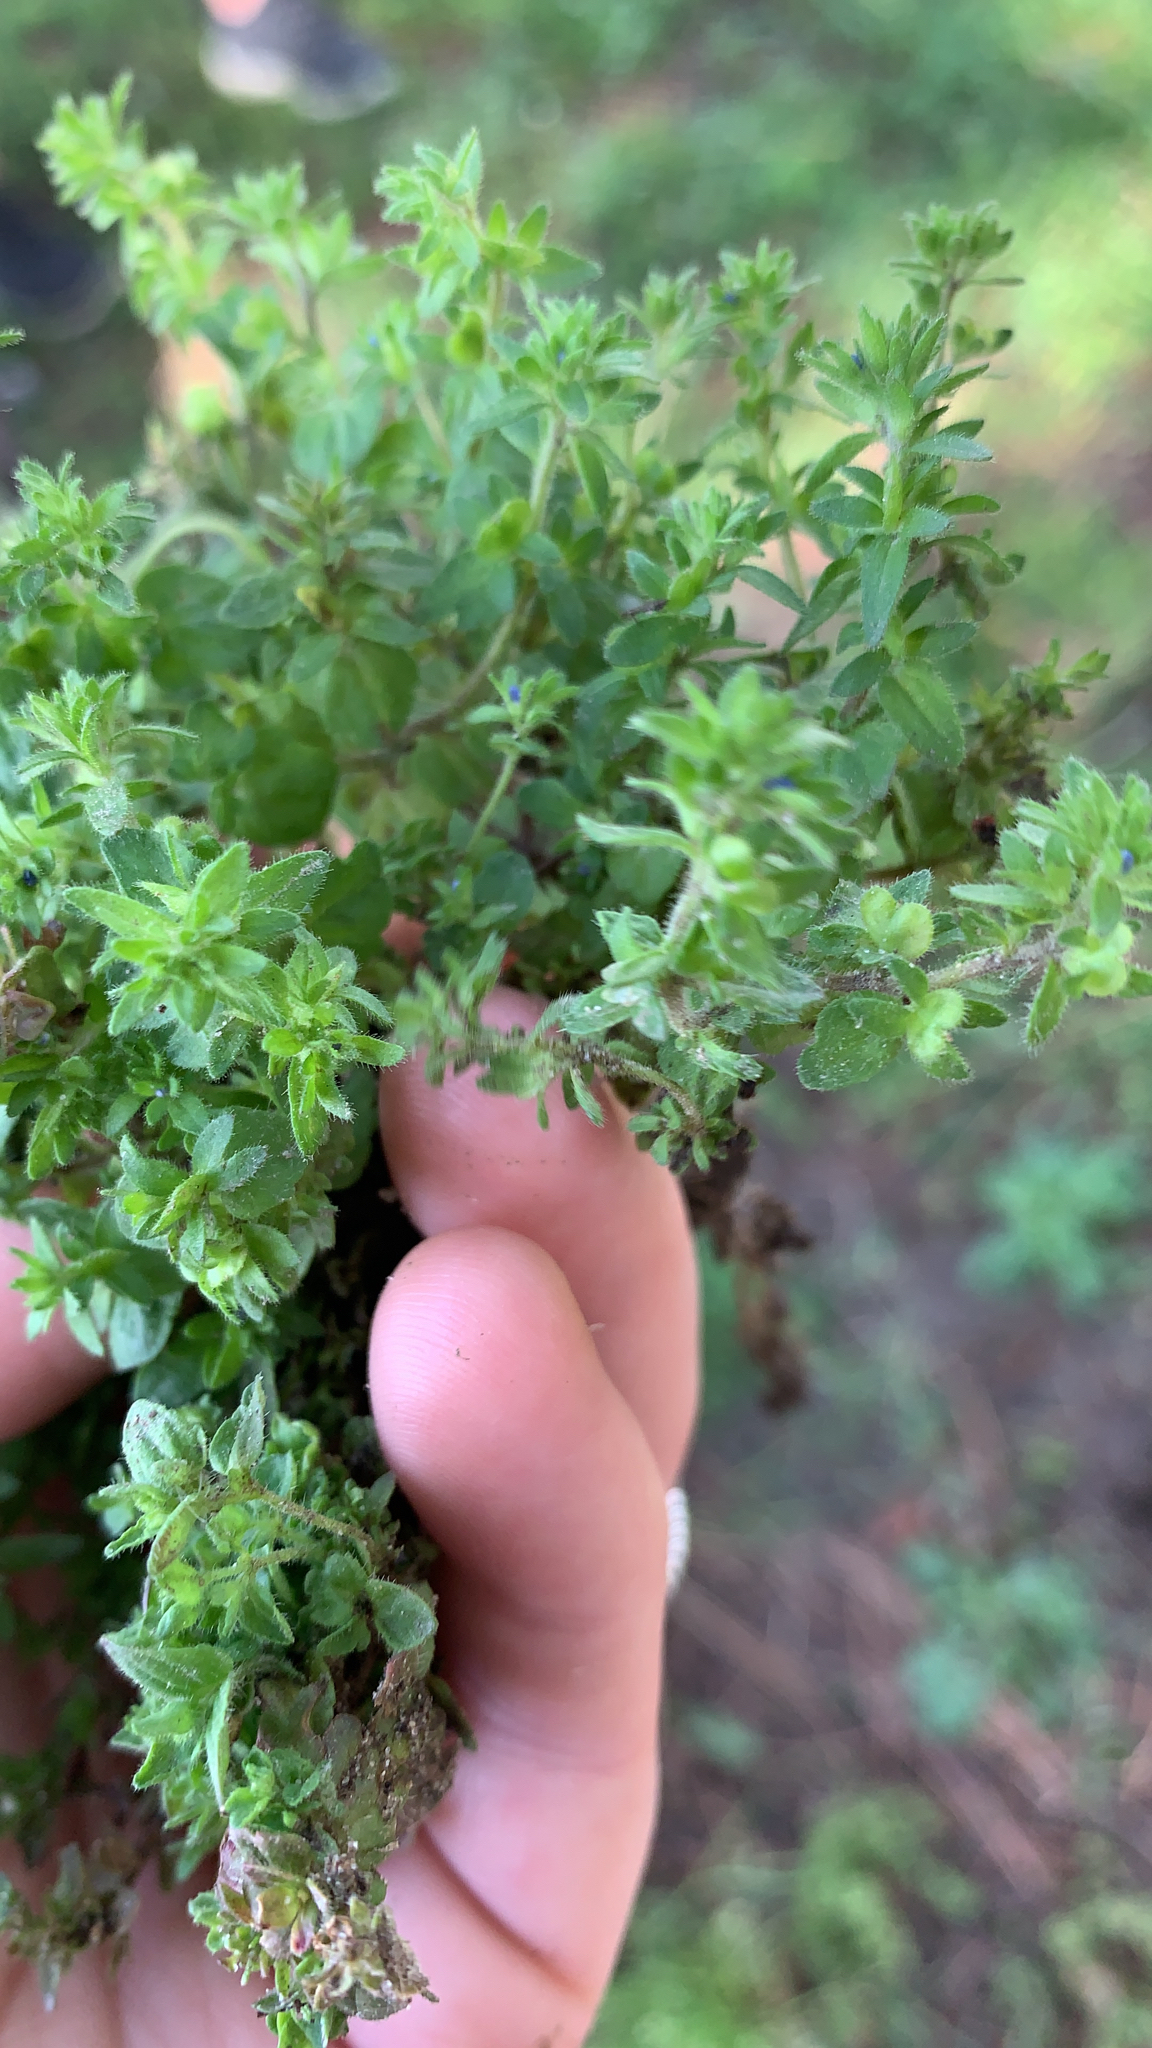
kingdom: Plantae
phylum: Tracheophyta
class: Magnoliopsida
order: Lamiales
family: Plantaginaceae
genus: Veronica
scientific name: Veronica arvensis
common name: Corn speedwell
